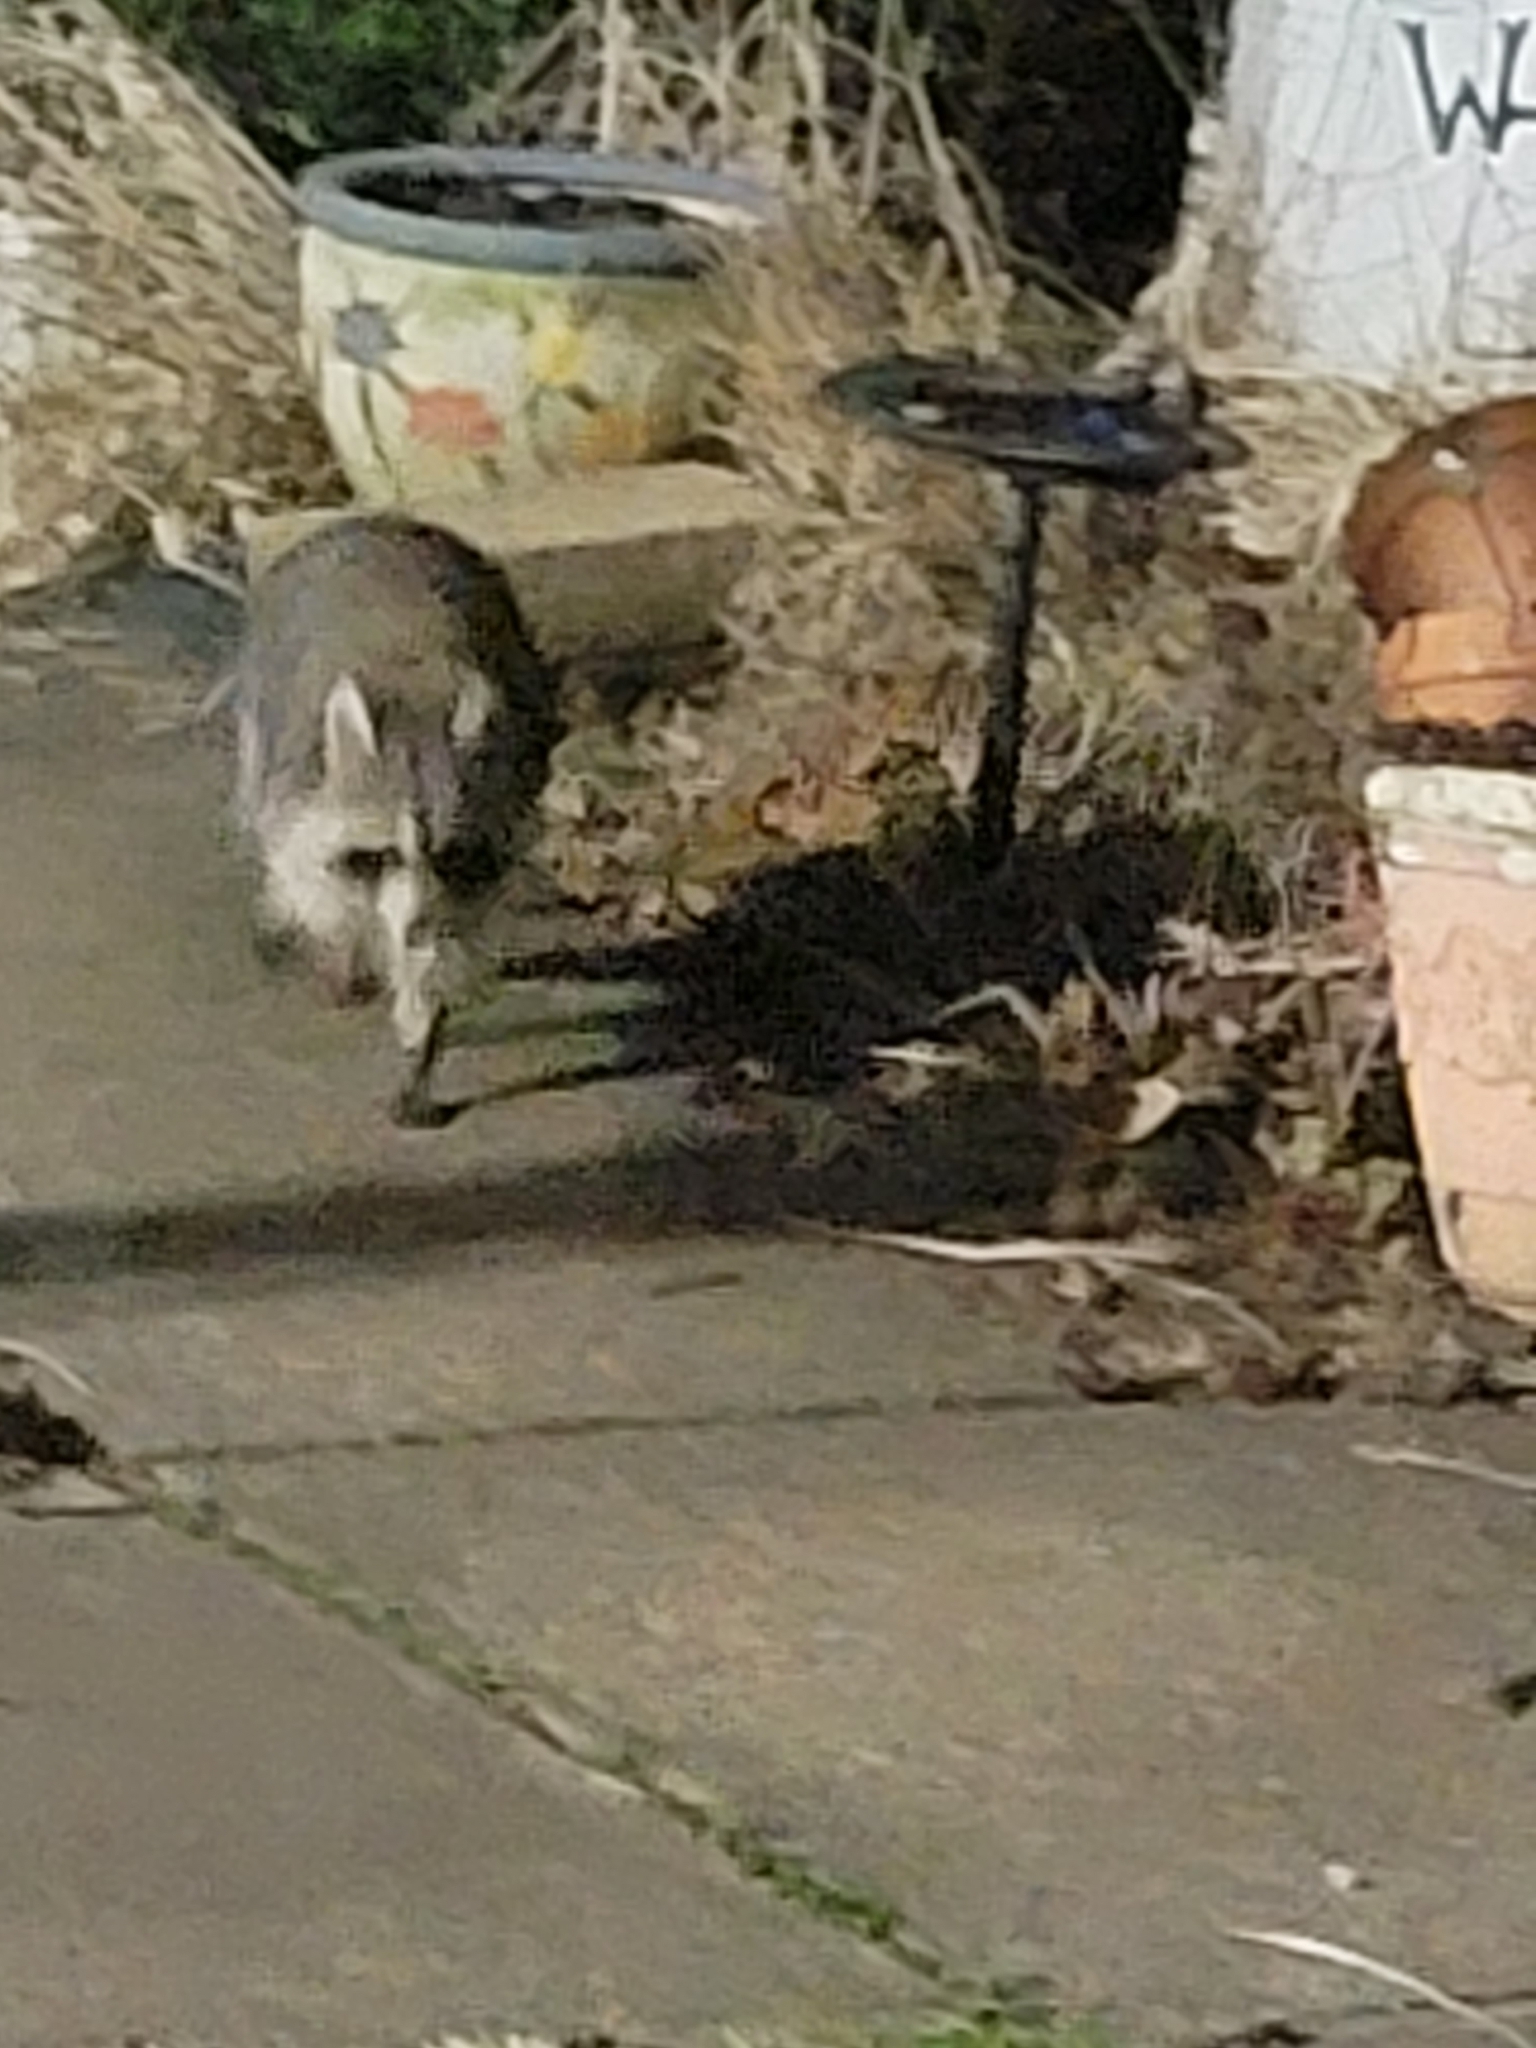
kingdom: Animalia
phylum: Chordata
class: Mammalia
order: Carnivora
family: Procyonidae
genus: Procyon
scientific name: Procyon lotor
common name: Raccoon
